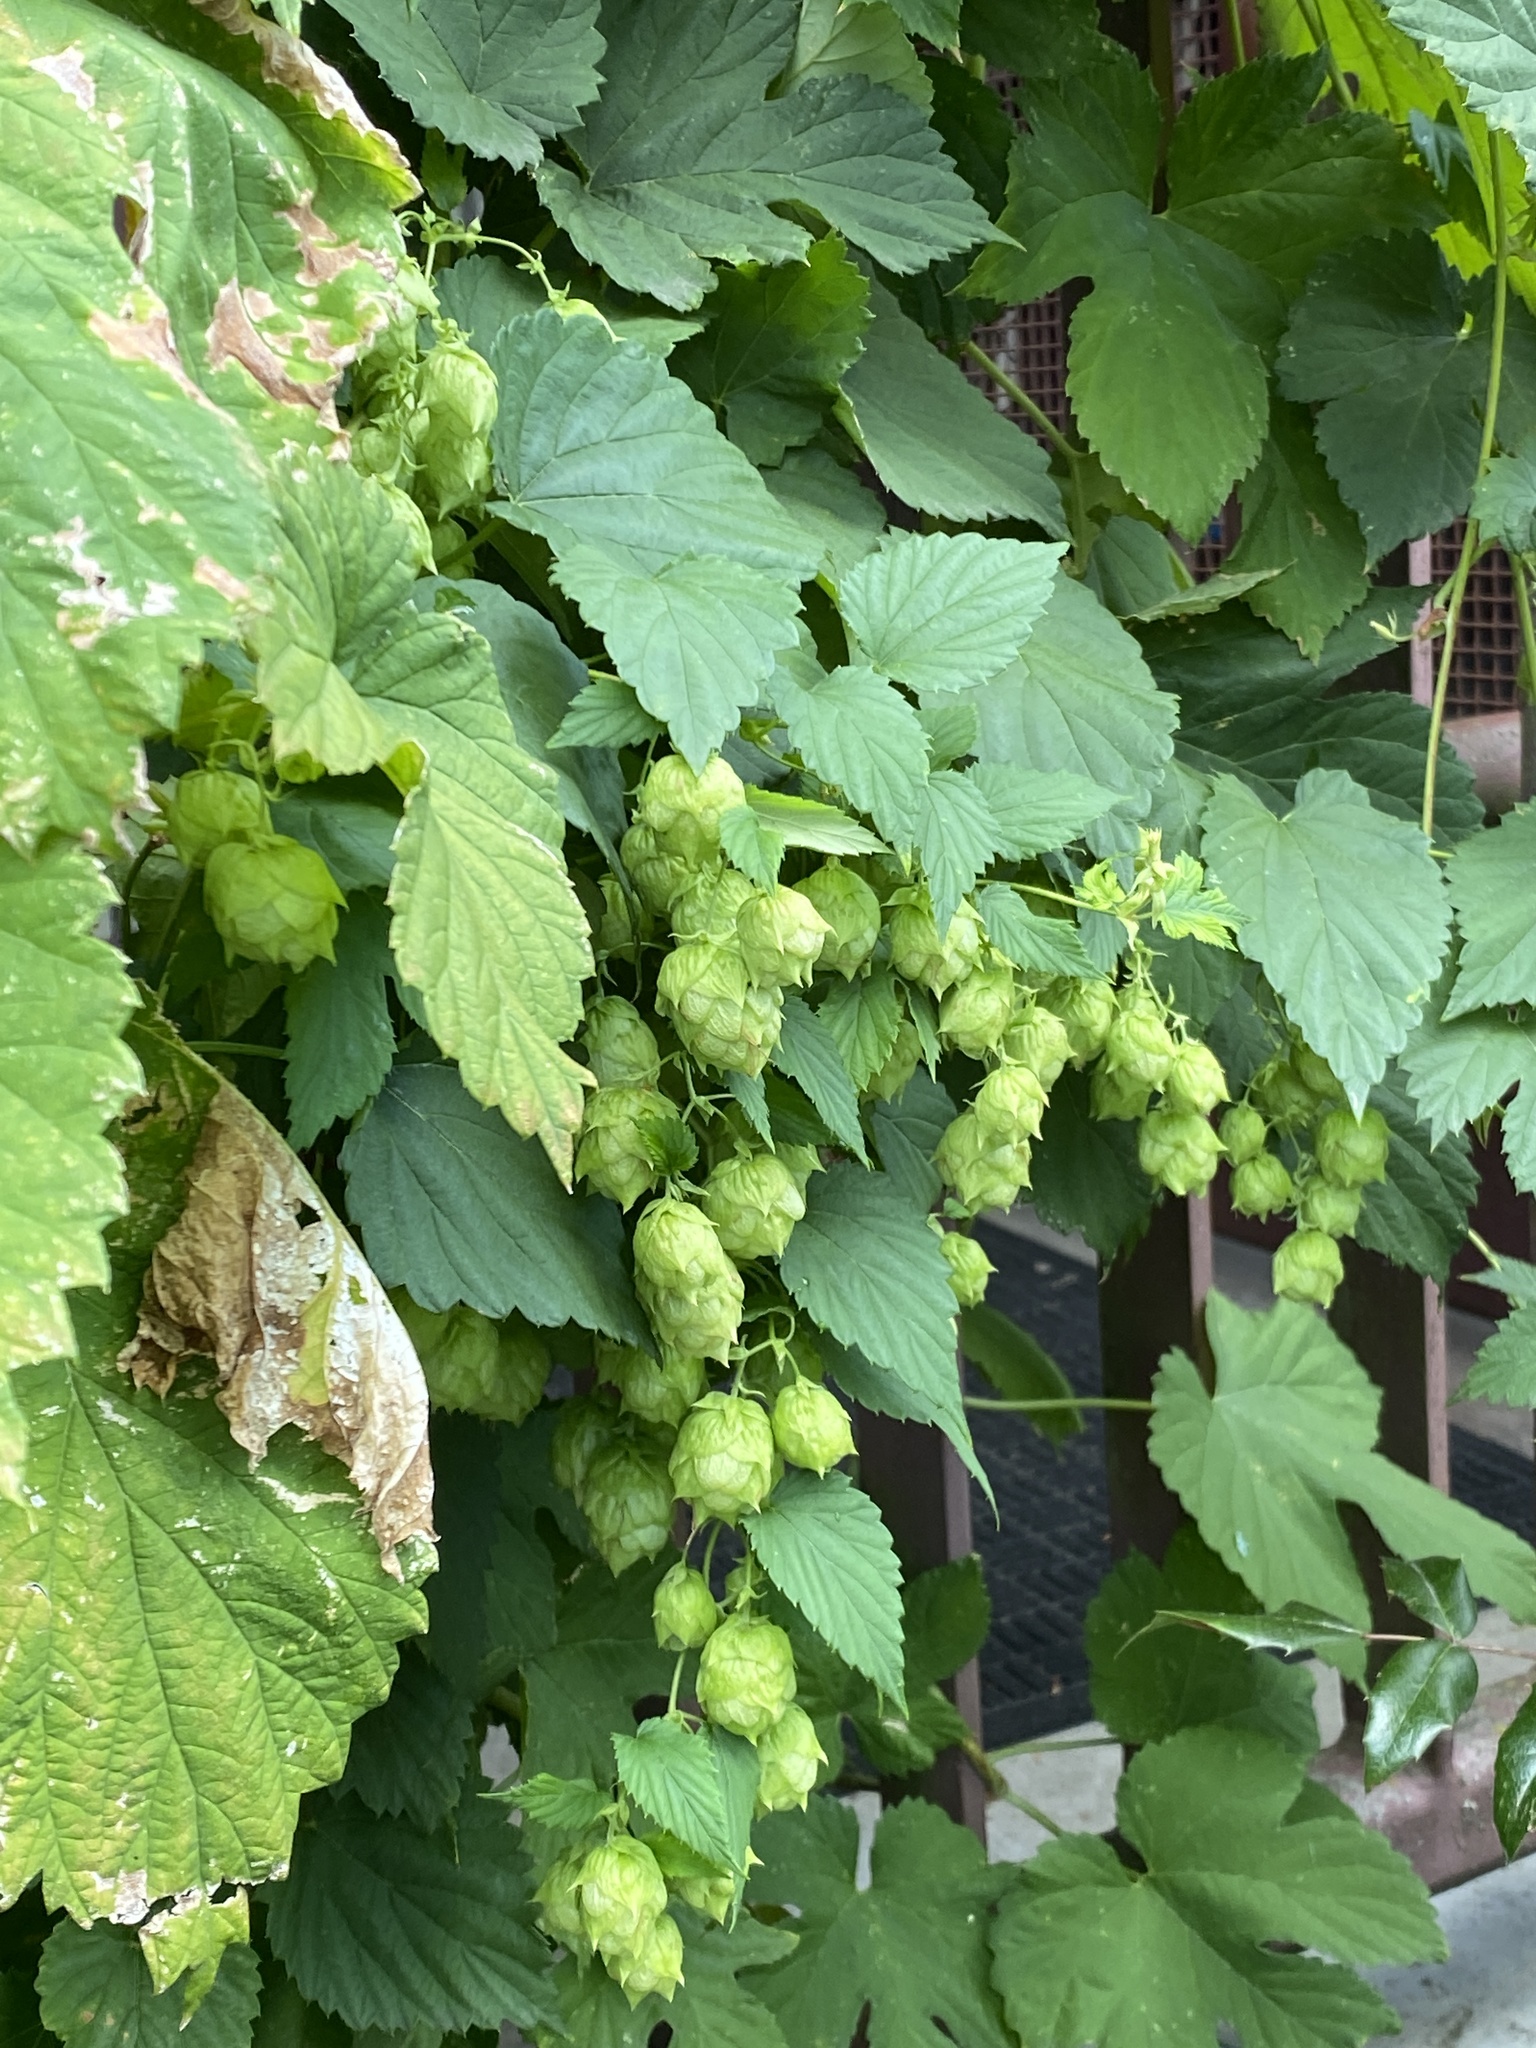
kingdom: Plantae
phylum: Tracheophyta
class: Magnoliopsida
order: Rosales
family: Cannabaceae
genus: Humulus
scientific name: Humulus lupulus
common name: Hop
